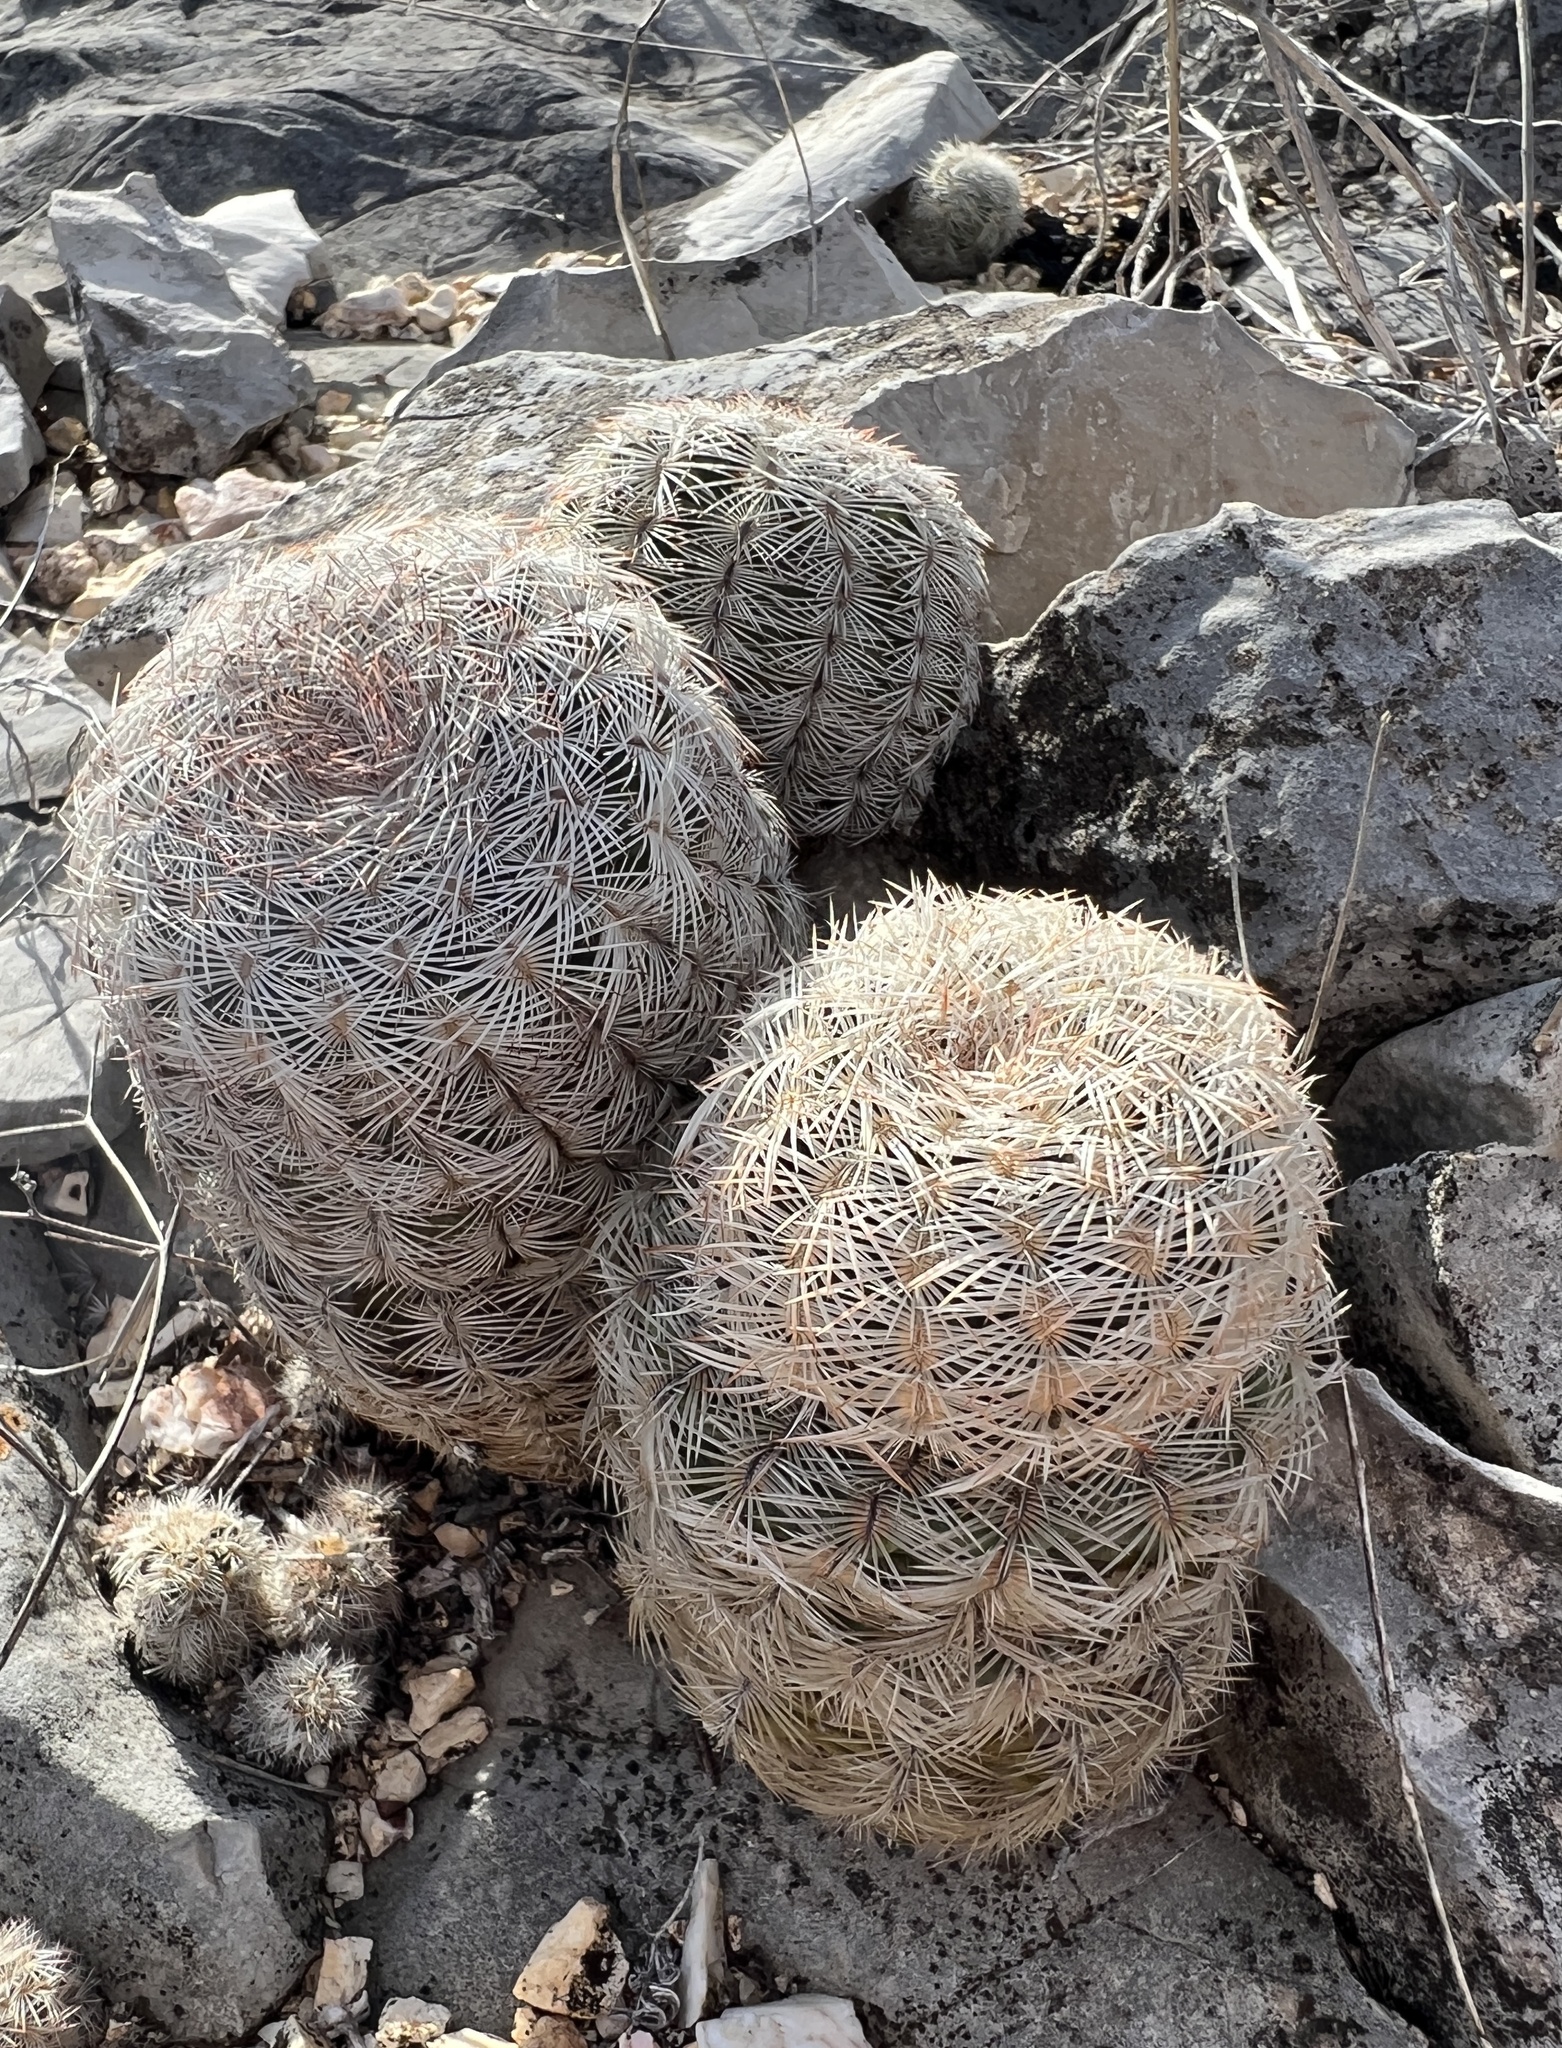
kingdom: Plantae
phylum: Tracheophyta
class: Magnoliopsida
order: Caryophyllales
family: Cactaceae
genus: Echinocereus
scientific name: Echinocereus reichenbachii
